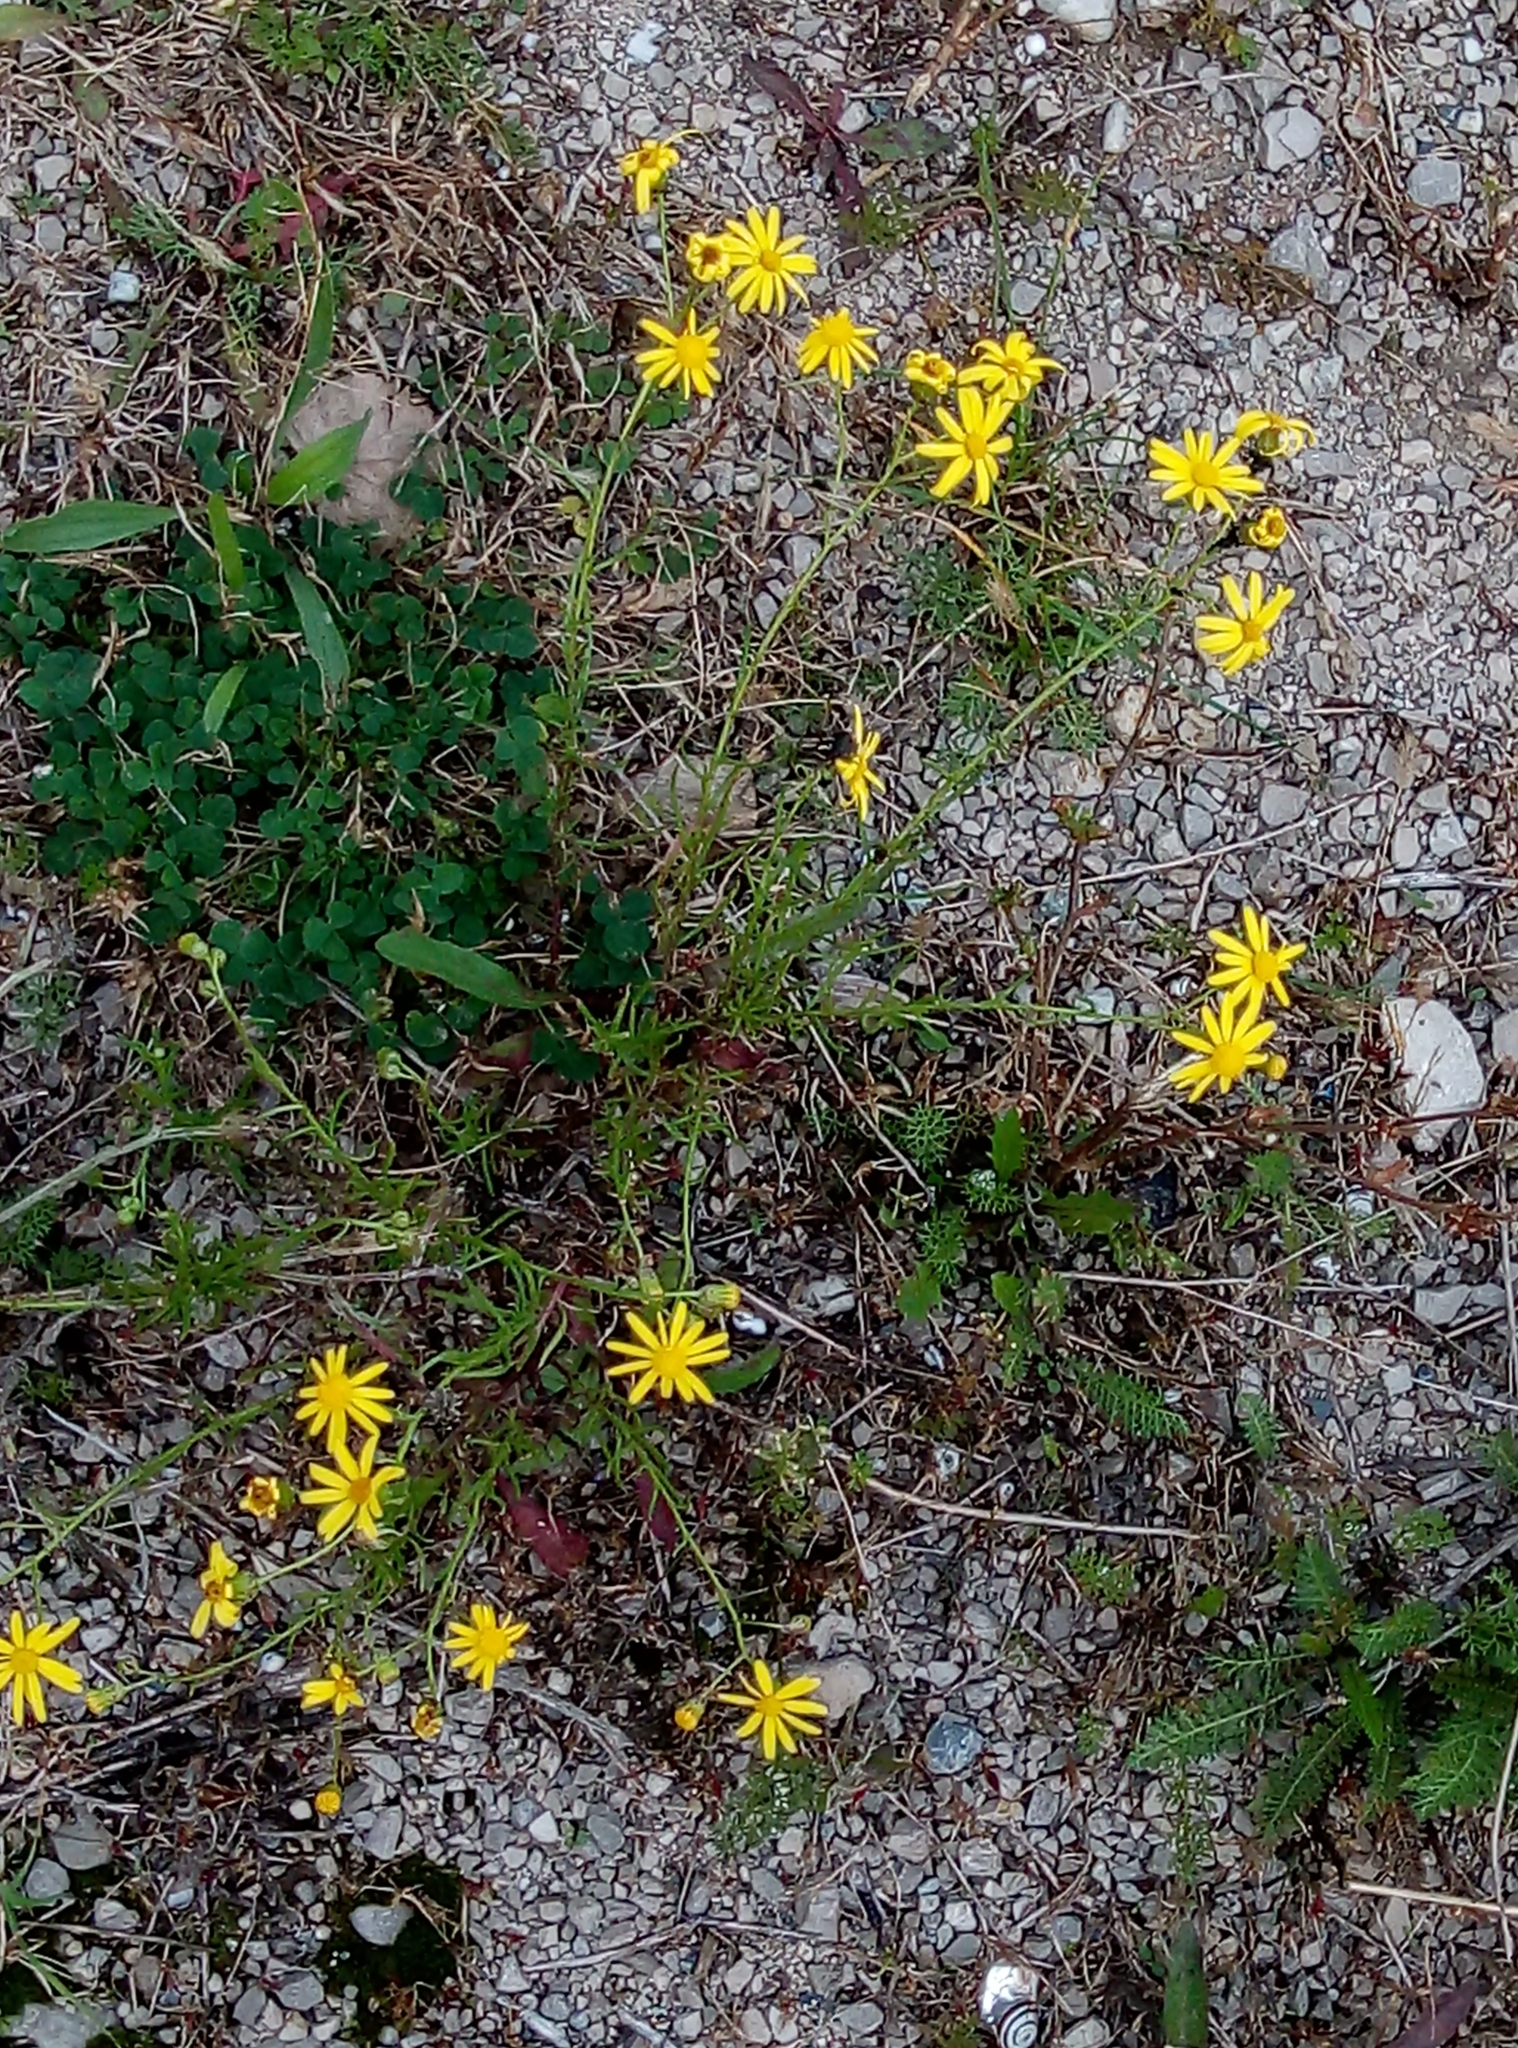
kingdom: Plantae
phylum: Tracheophyta
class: Magnoliopsida
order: Asterales
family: Asteraceae
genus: Senecio
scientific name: Senecio inaequidens
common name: Narrow-leaved ragwort
